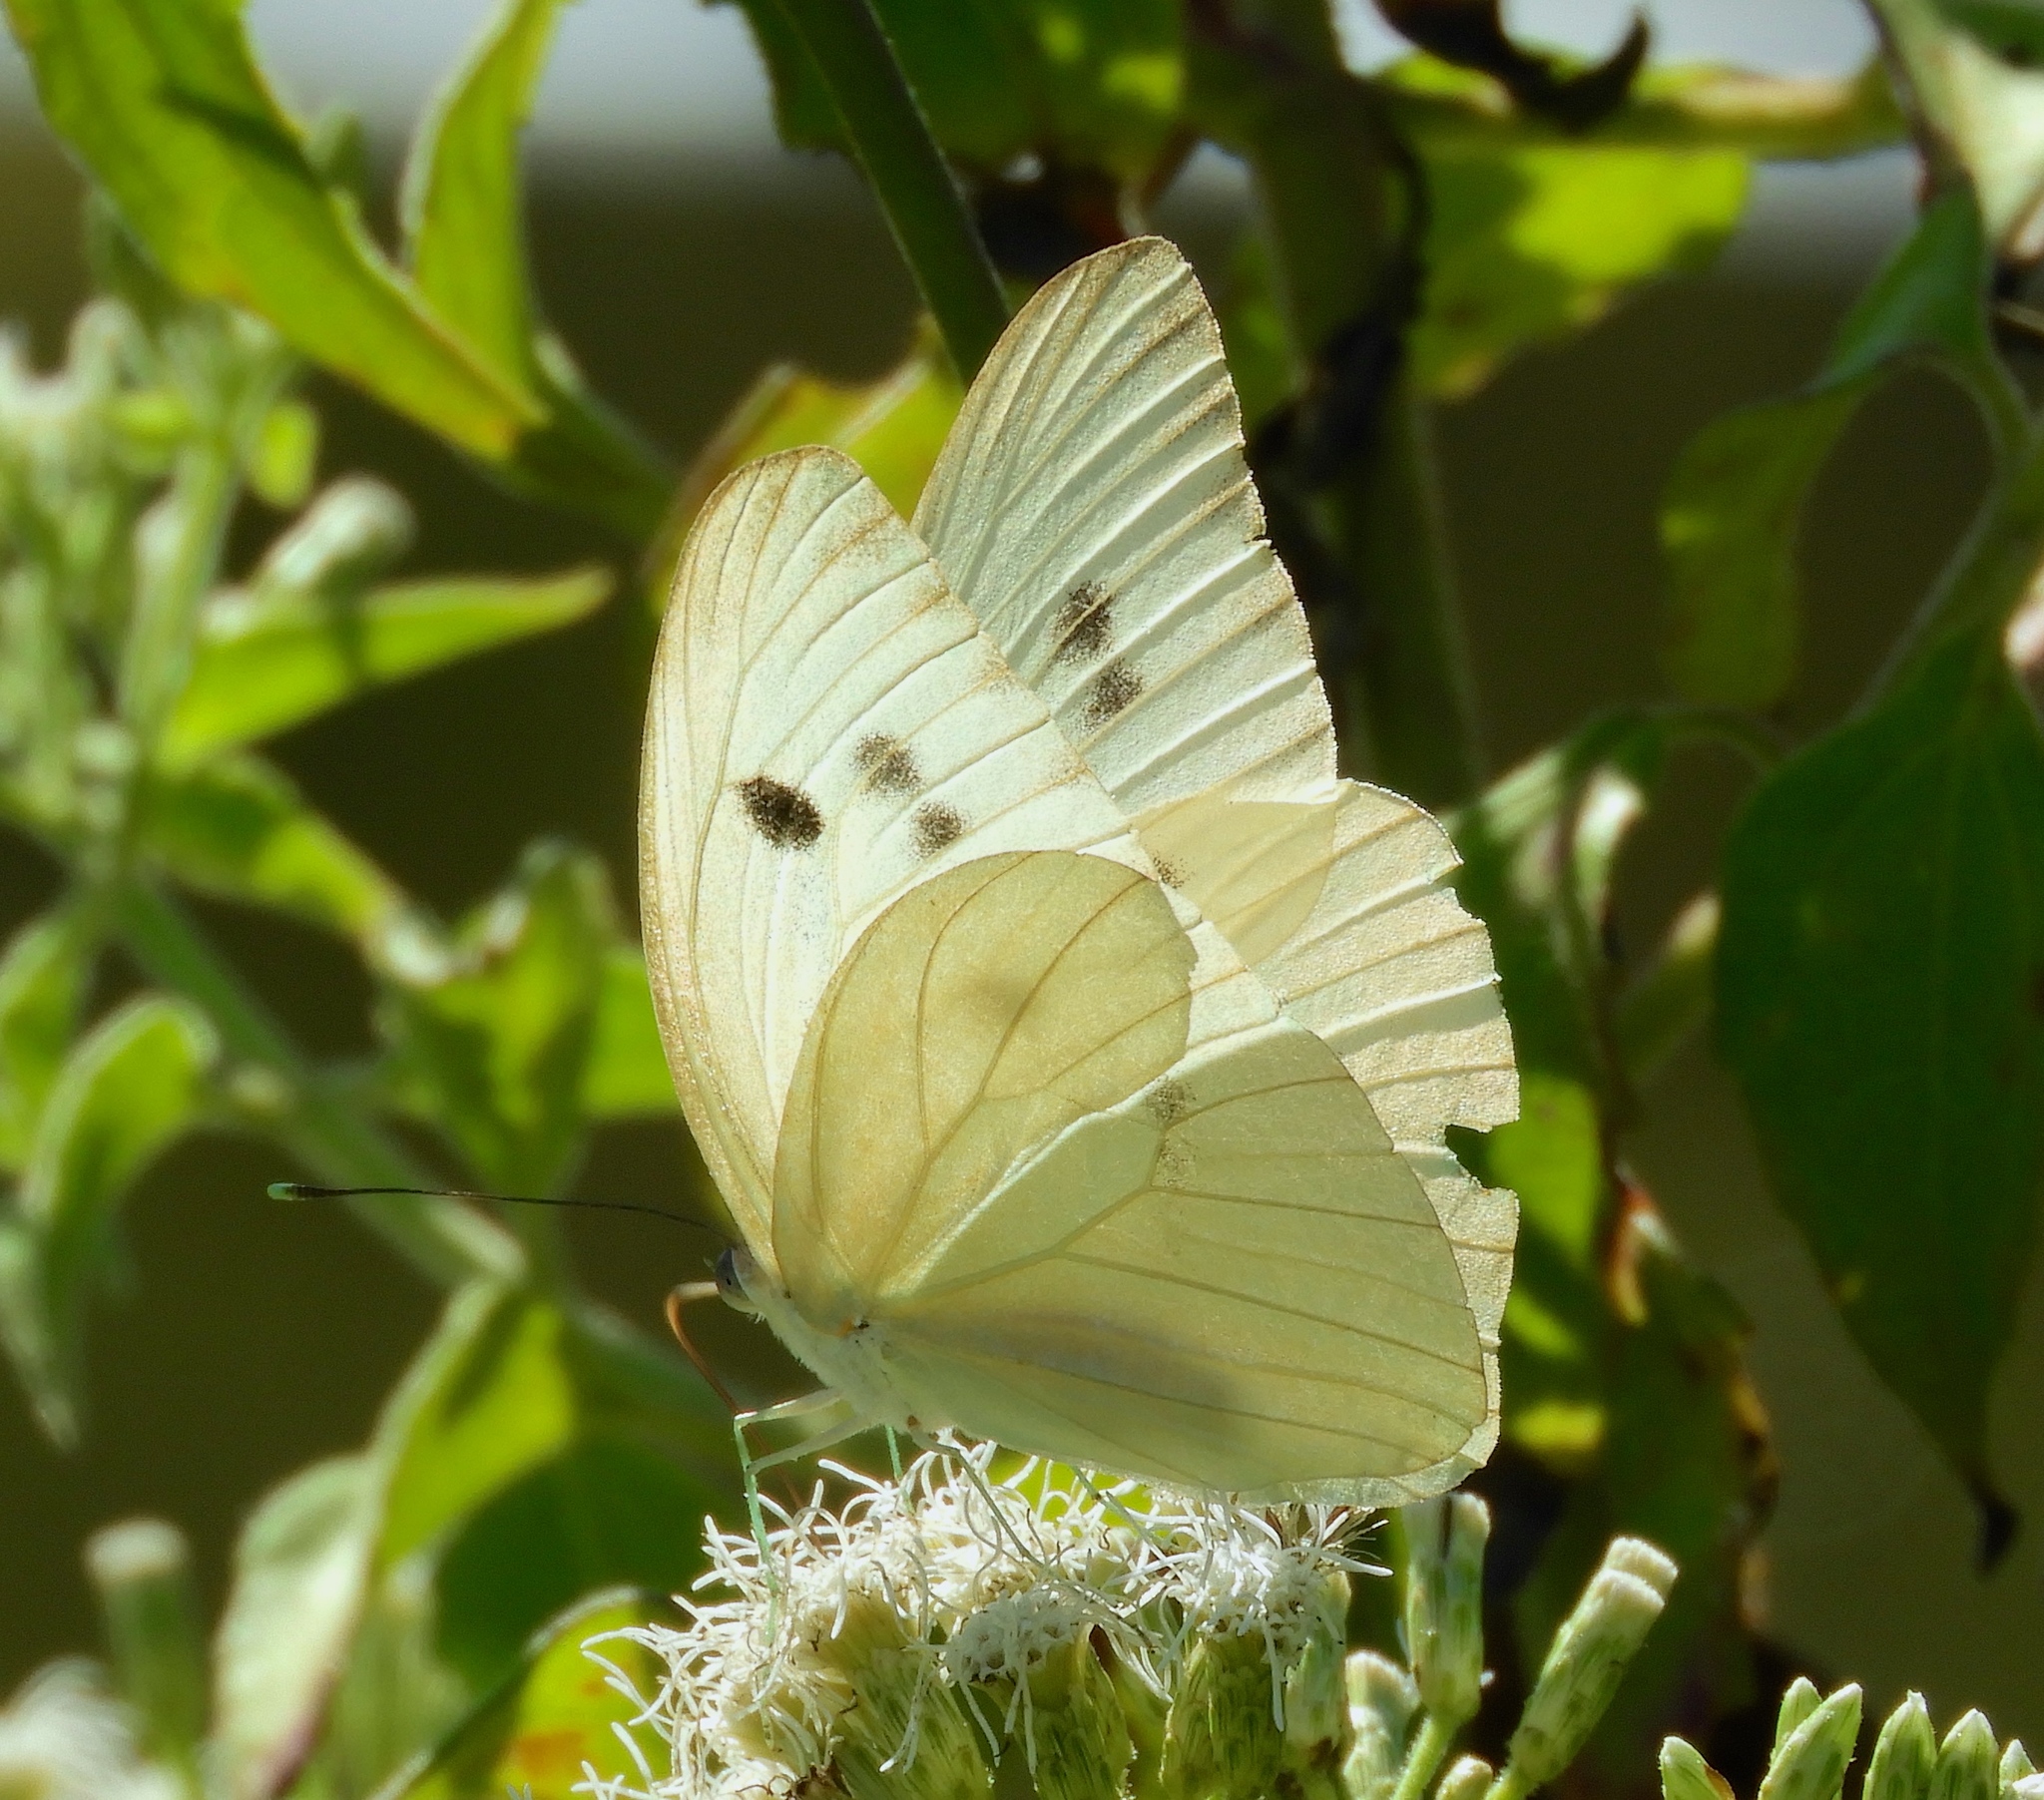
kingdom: Animalia
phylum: Arthropoda
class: Insecta
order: Lepidoptera
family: Pieridae
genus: Ganyra
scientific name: Ganyra josephina
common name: Giant white
